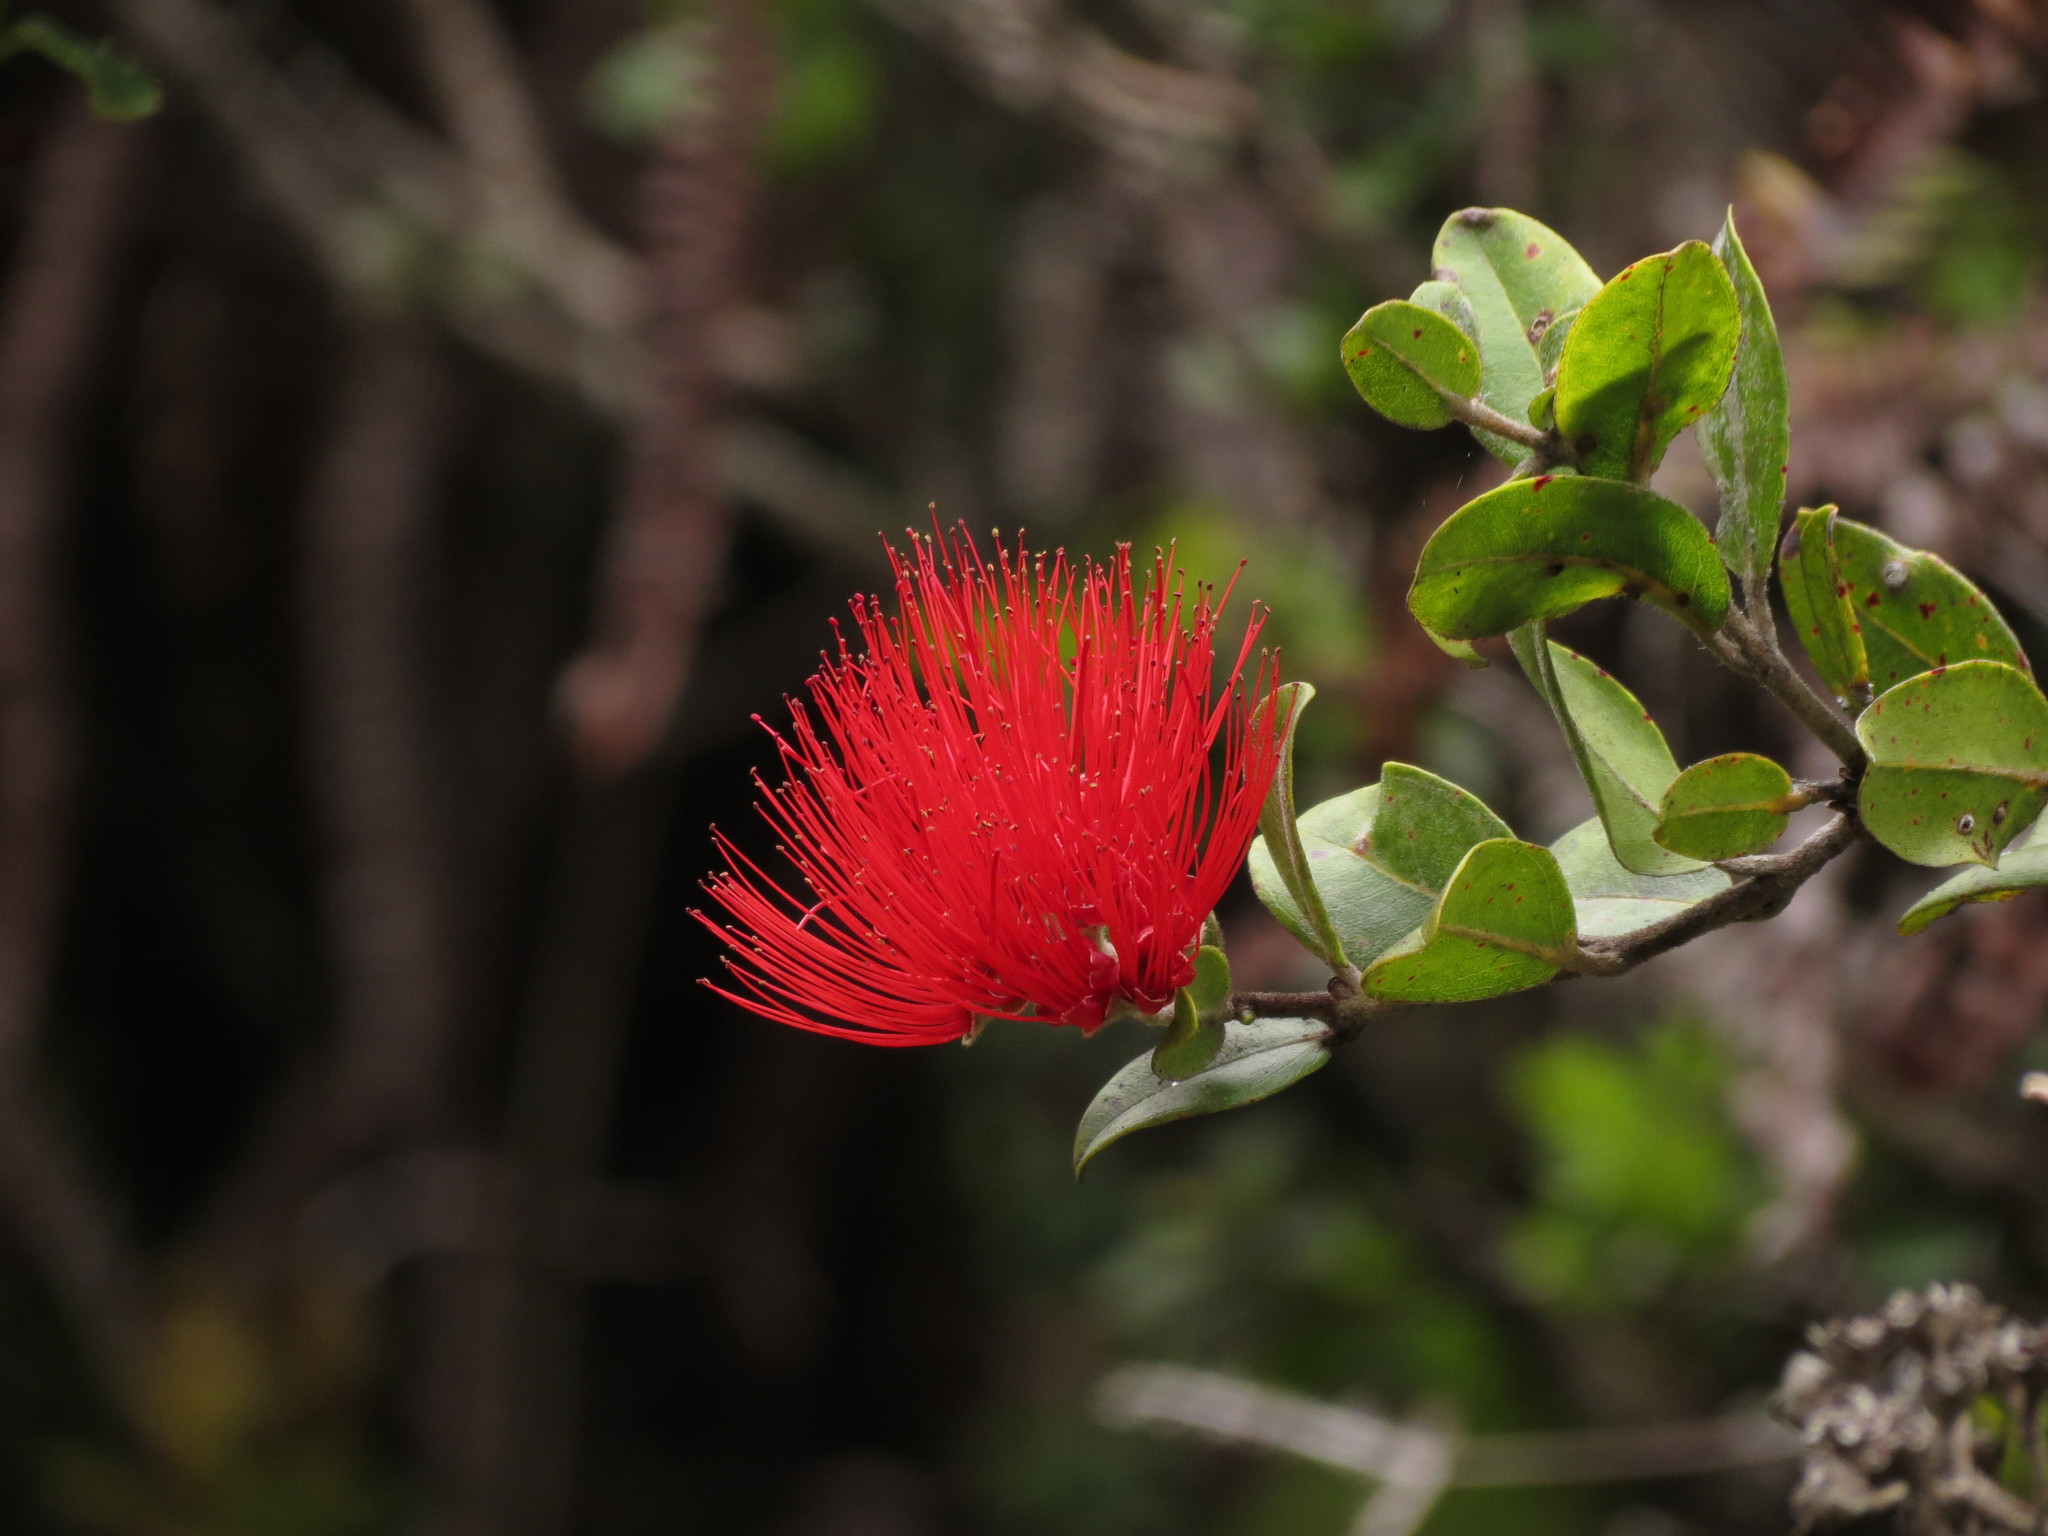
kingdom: Plantae
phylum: Tracheophyta
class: Magnoliopsida
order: Myrtales
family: Myrtaceae
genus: Metrosideros
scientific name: Metrosideros polymorpha
